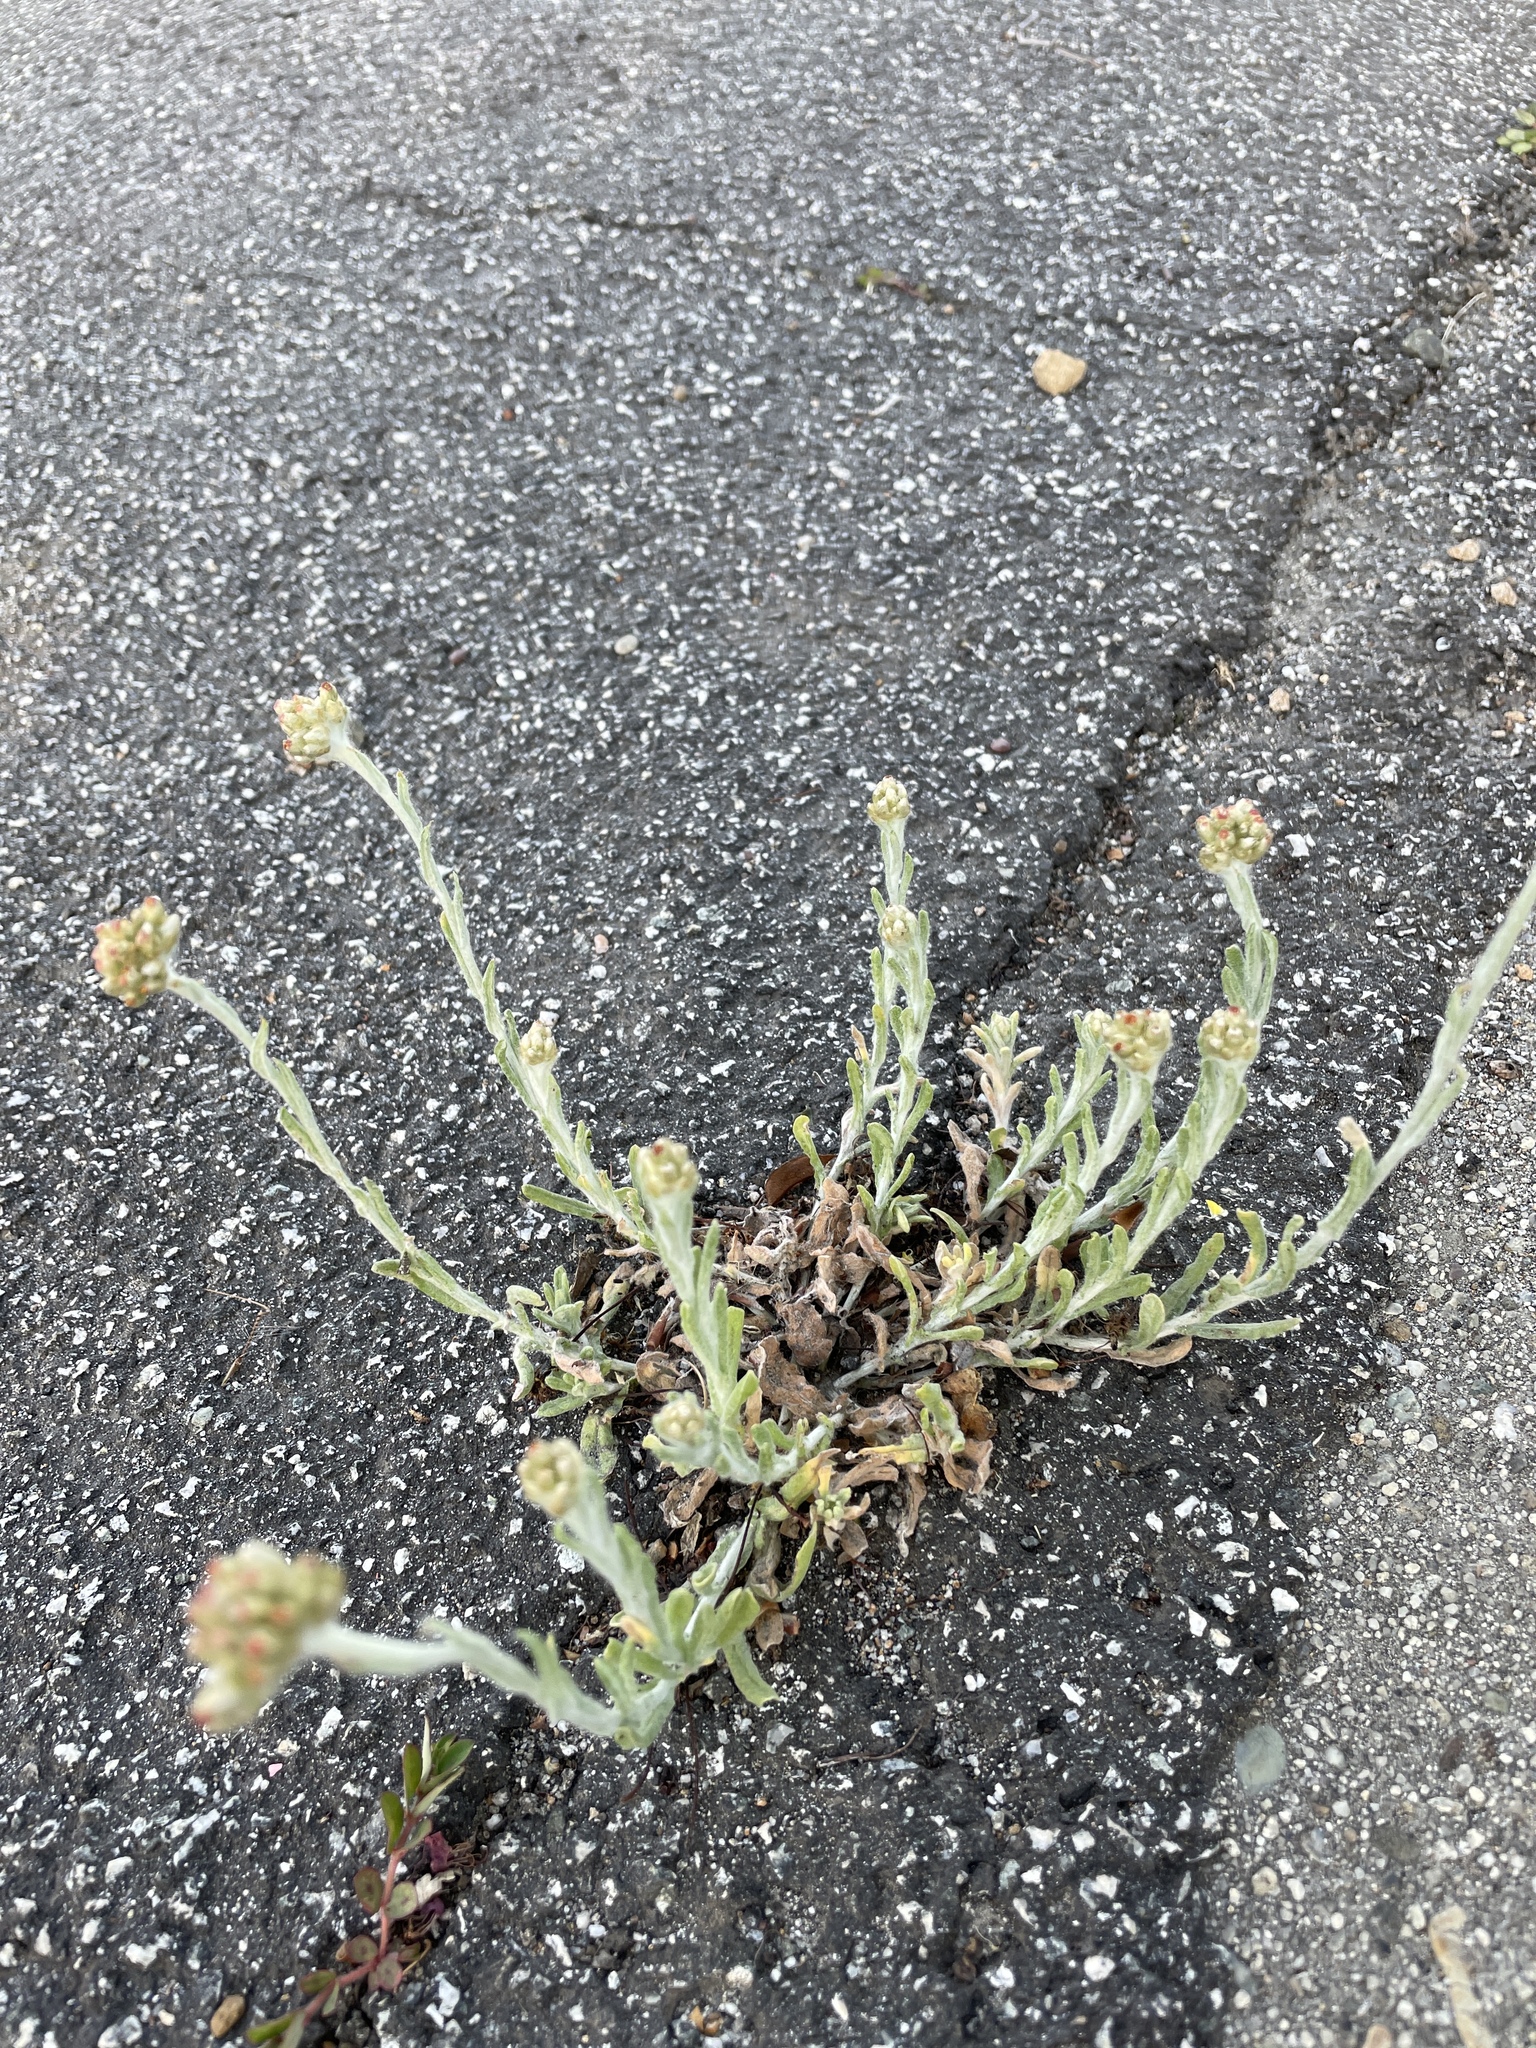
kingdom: Plantae
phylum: Tracheophyta
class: Magnoliopsida
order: Asterales
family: Asteraceae
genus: Helichrysum
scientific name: Helichrysum luteoalbum
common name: Daisy
